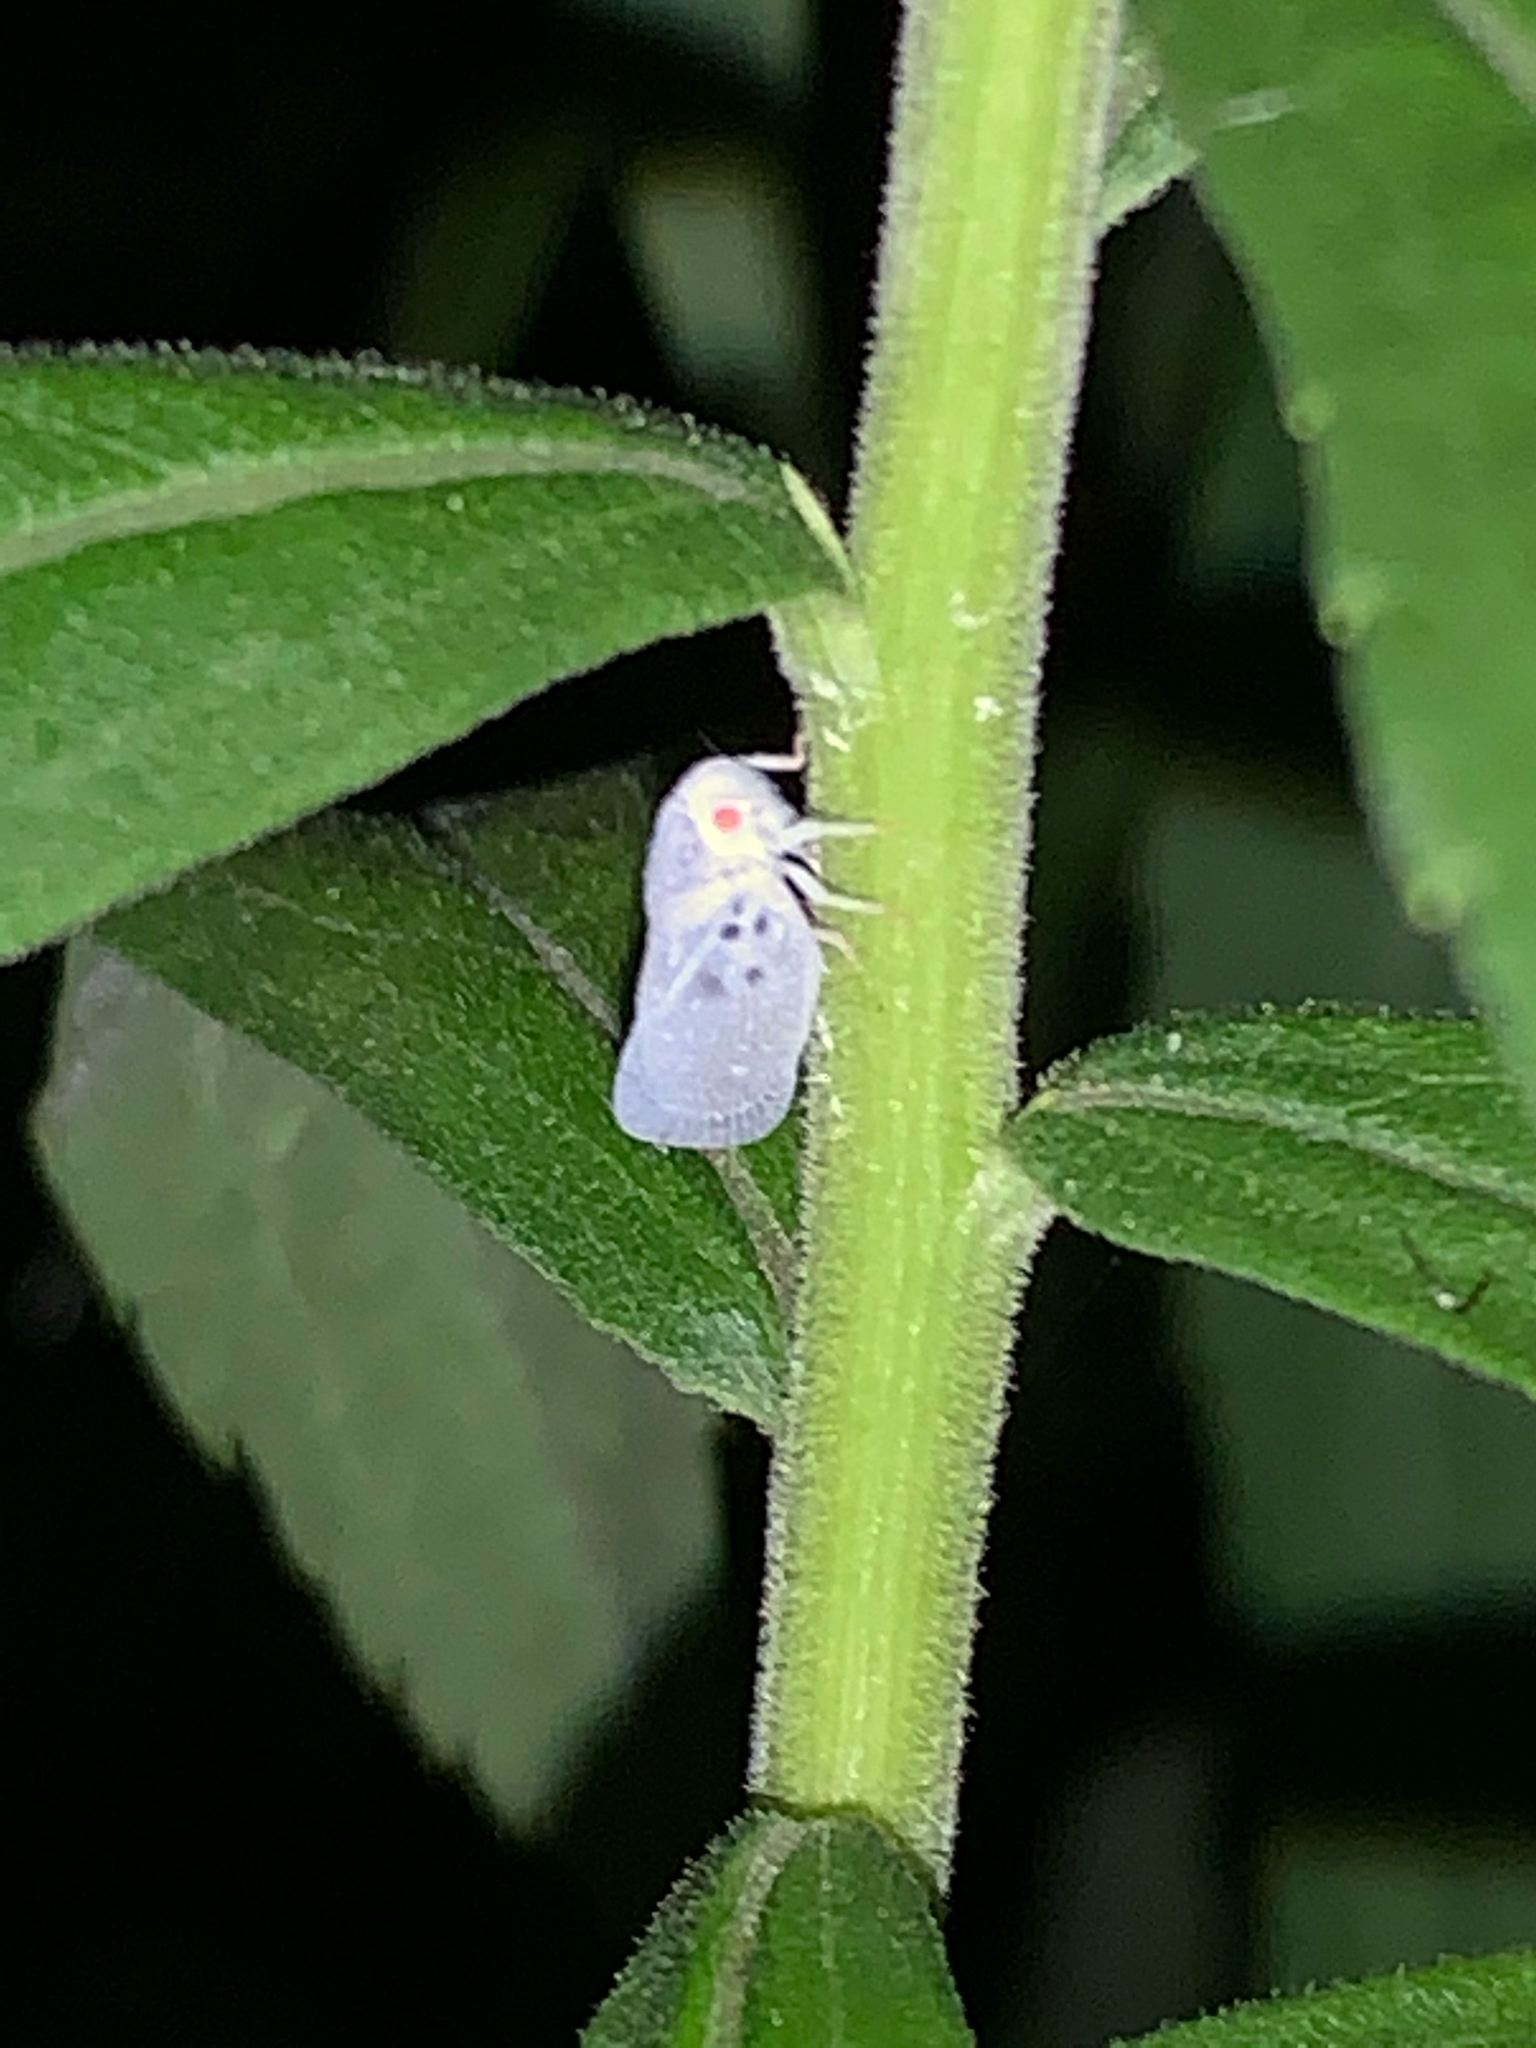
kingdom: Animalia
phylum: Arthropoda
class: Insecta
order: Hemiptera
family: Flatidae
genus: Metcalfa
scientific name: Metcalfa pruinosa
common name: Citrus flatid planthopper
